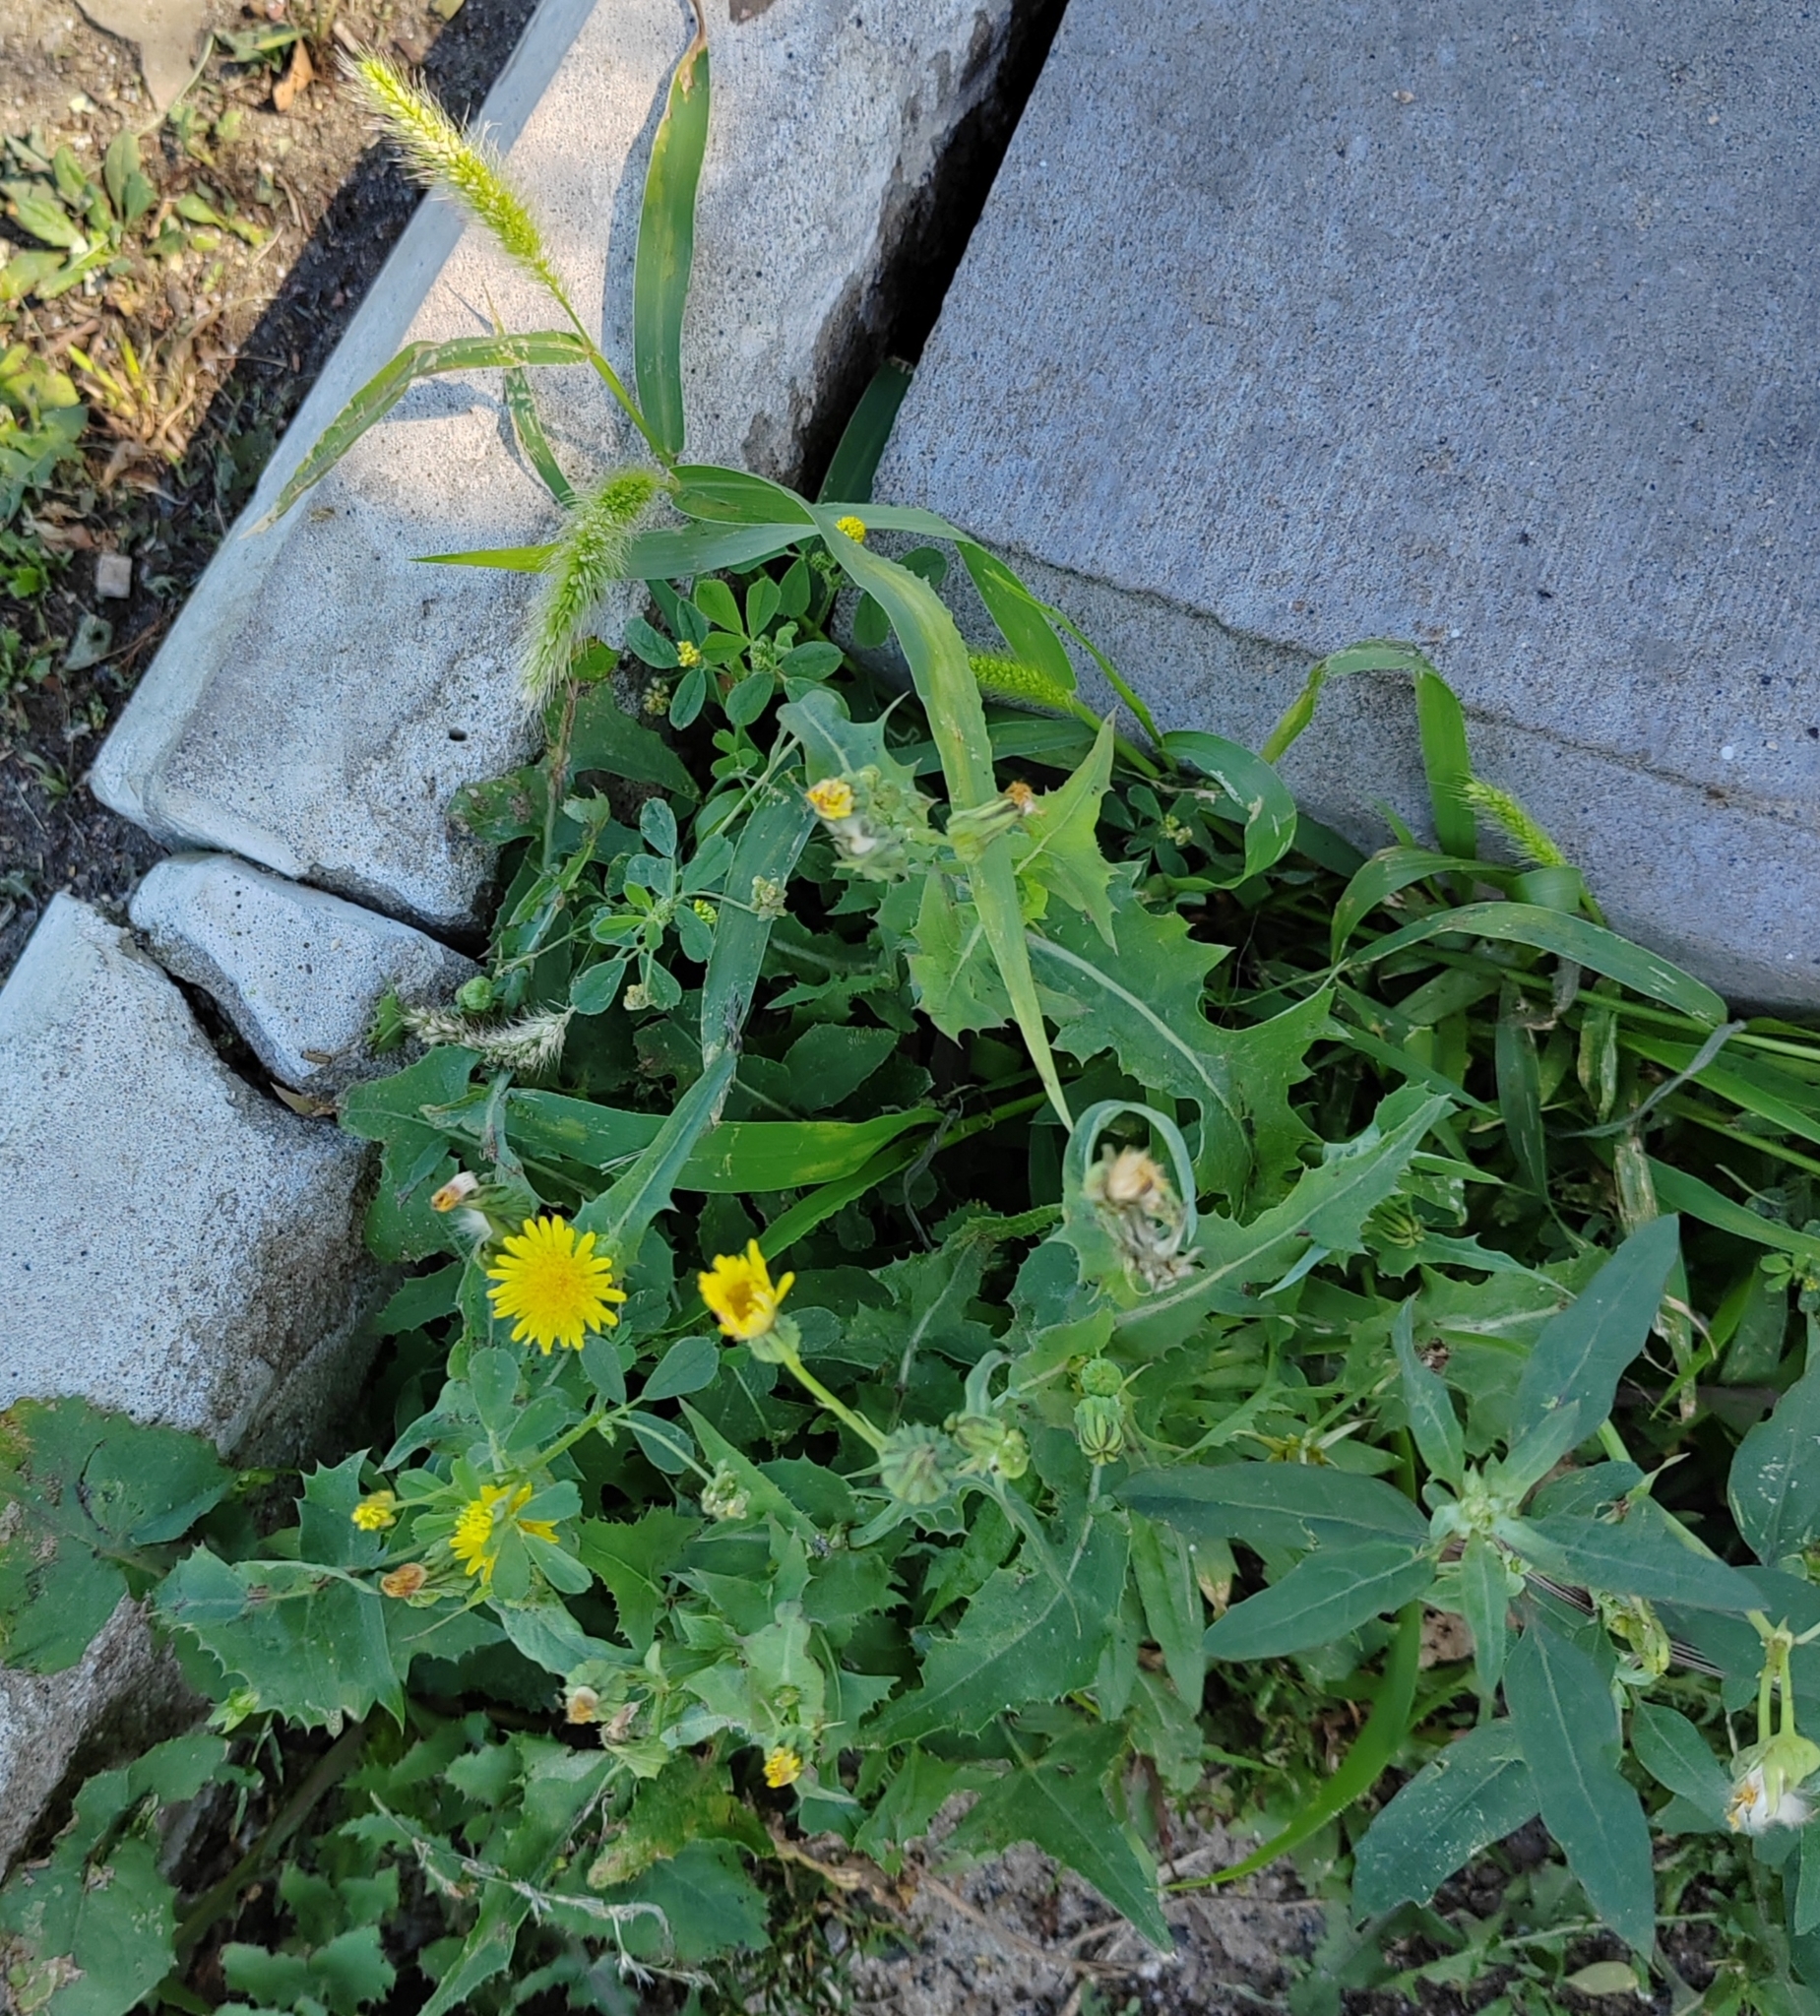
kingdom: Plantae
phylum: Tracheophyta
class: Magnoliopsida
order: Asterales
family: Asteraceae
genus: Sonchus
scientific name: Sonchus oleraceus
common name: Common sowthistle
